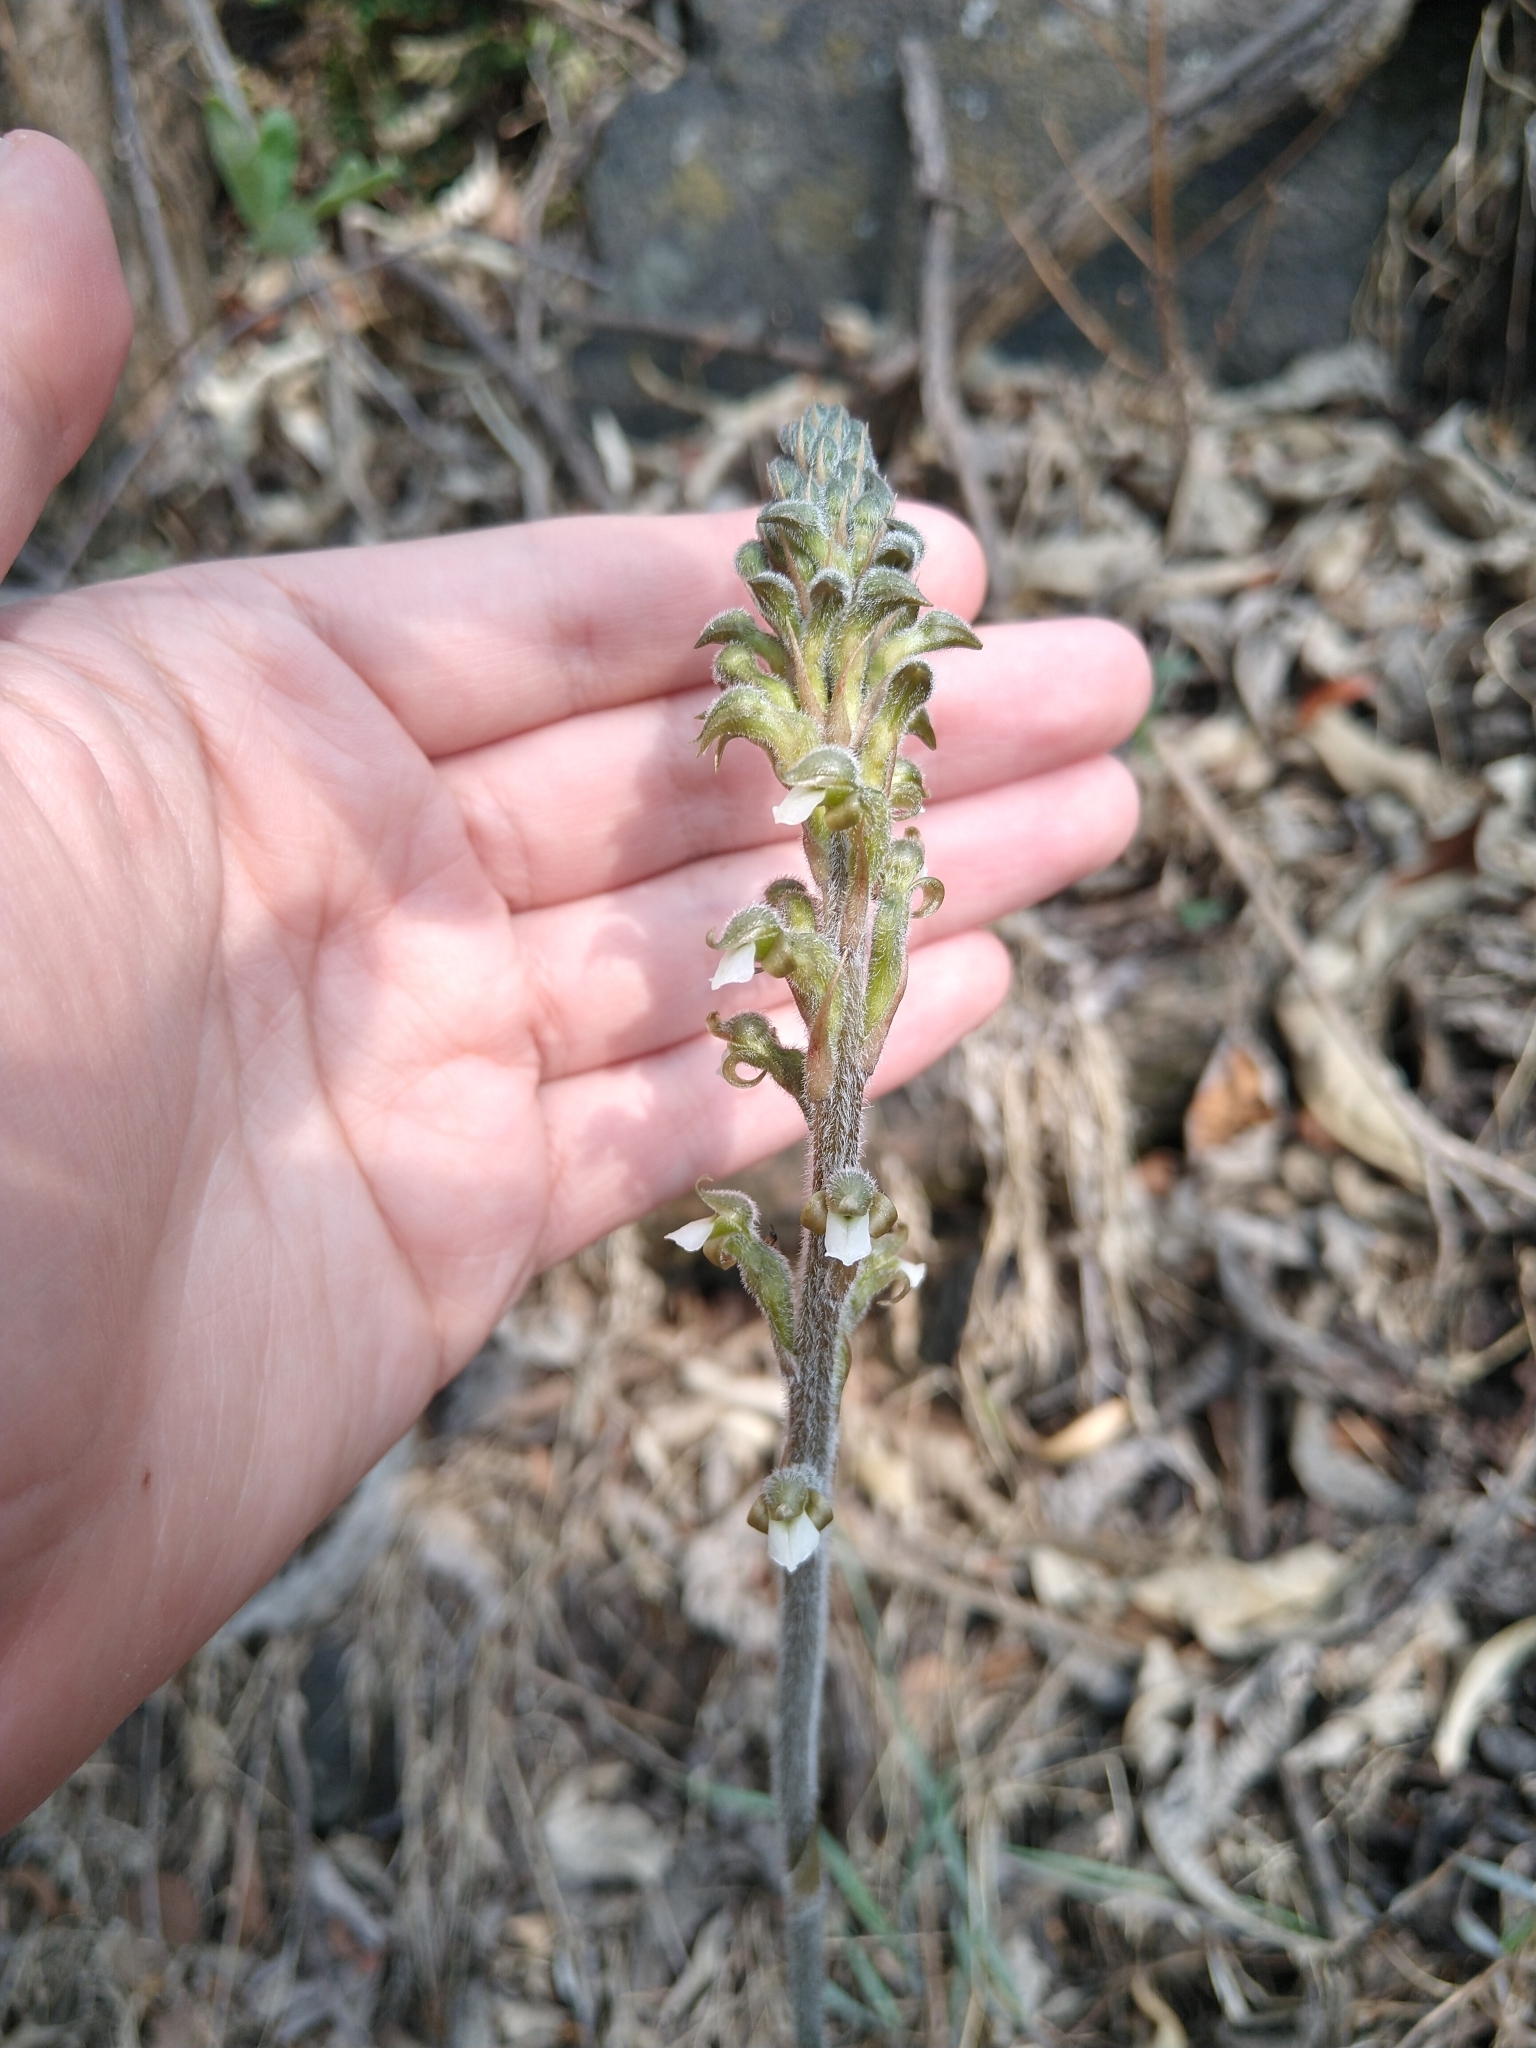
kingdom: Plantae
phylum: Tracheophyta
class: Liliopsida
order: Asparagales
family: Orchidaceae
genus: Sarcoglottis
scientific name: Sarcoglottis schaffneri
